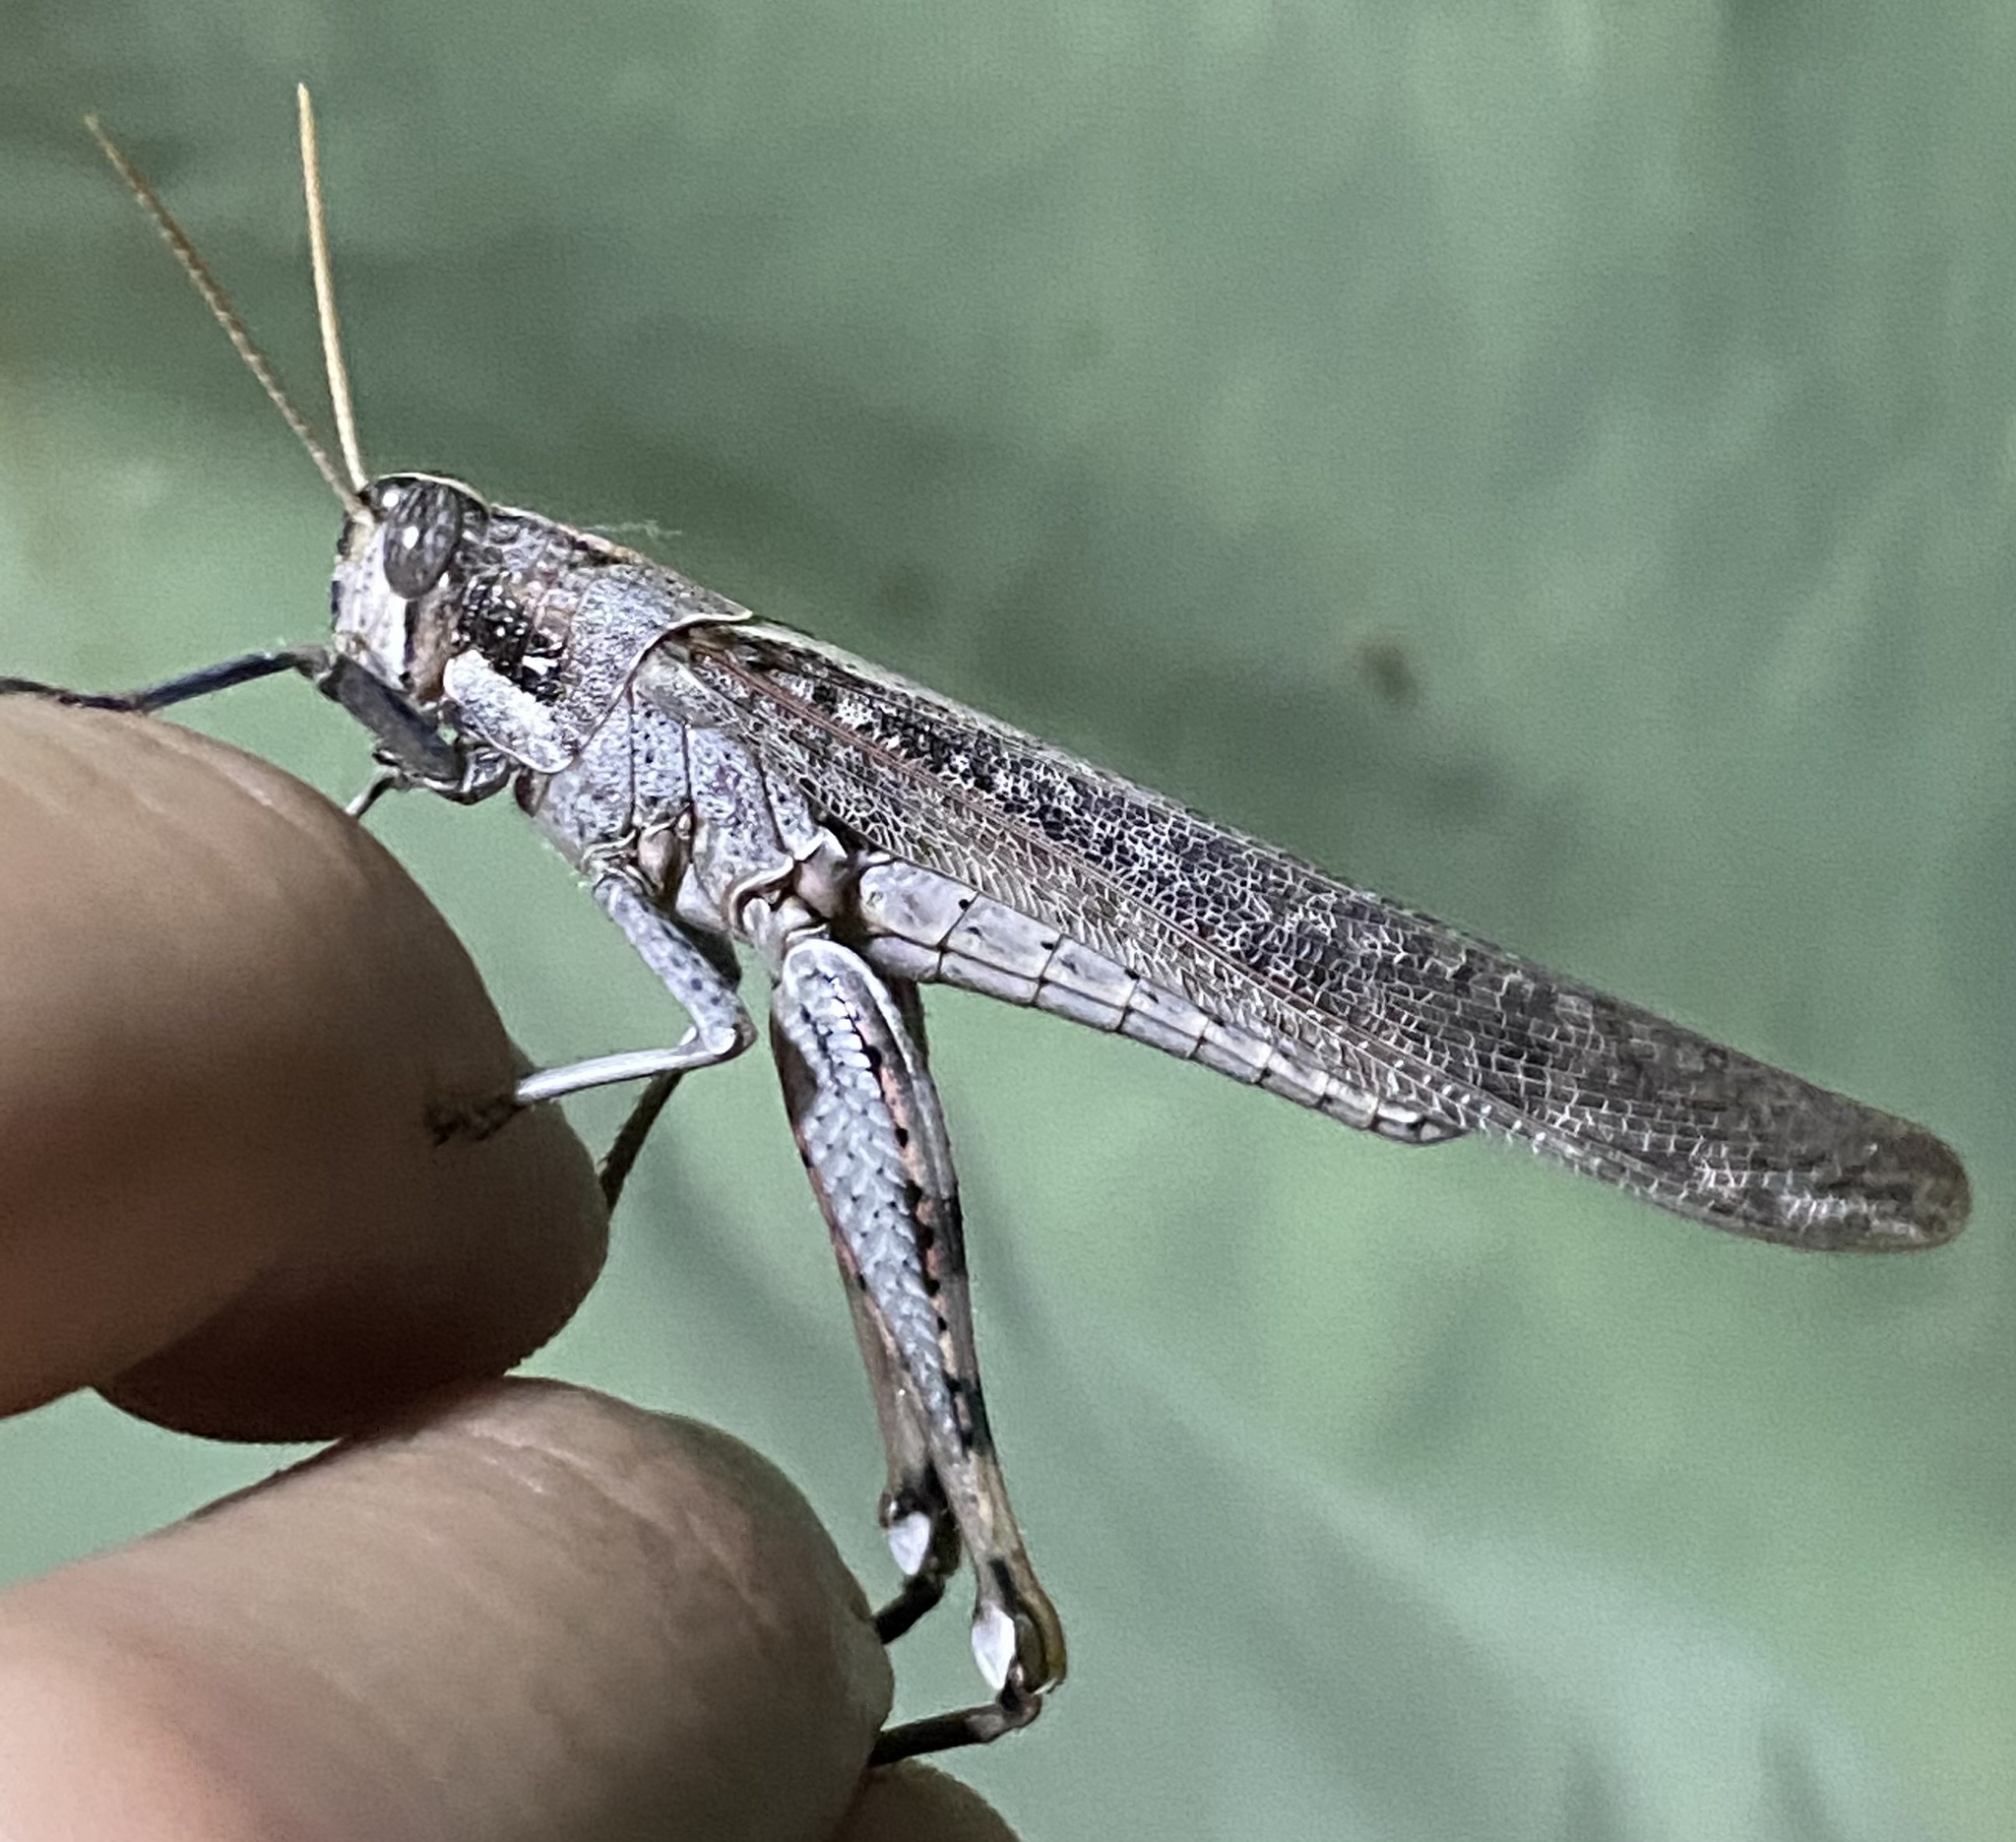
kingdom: Animalia
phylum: Arthropoda
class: Insecta
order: Orthoptera
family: Acrididae
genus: Schistocerca
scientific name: Schistocerca nitens
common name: Vagrant grasshopper
